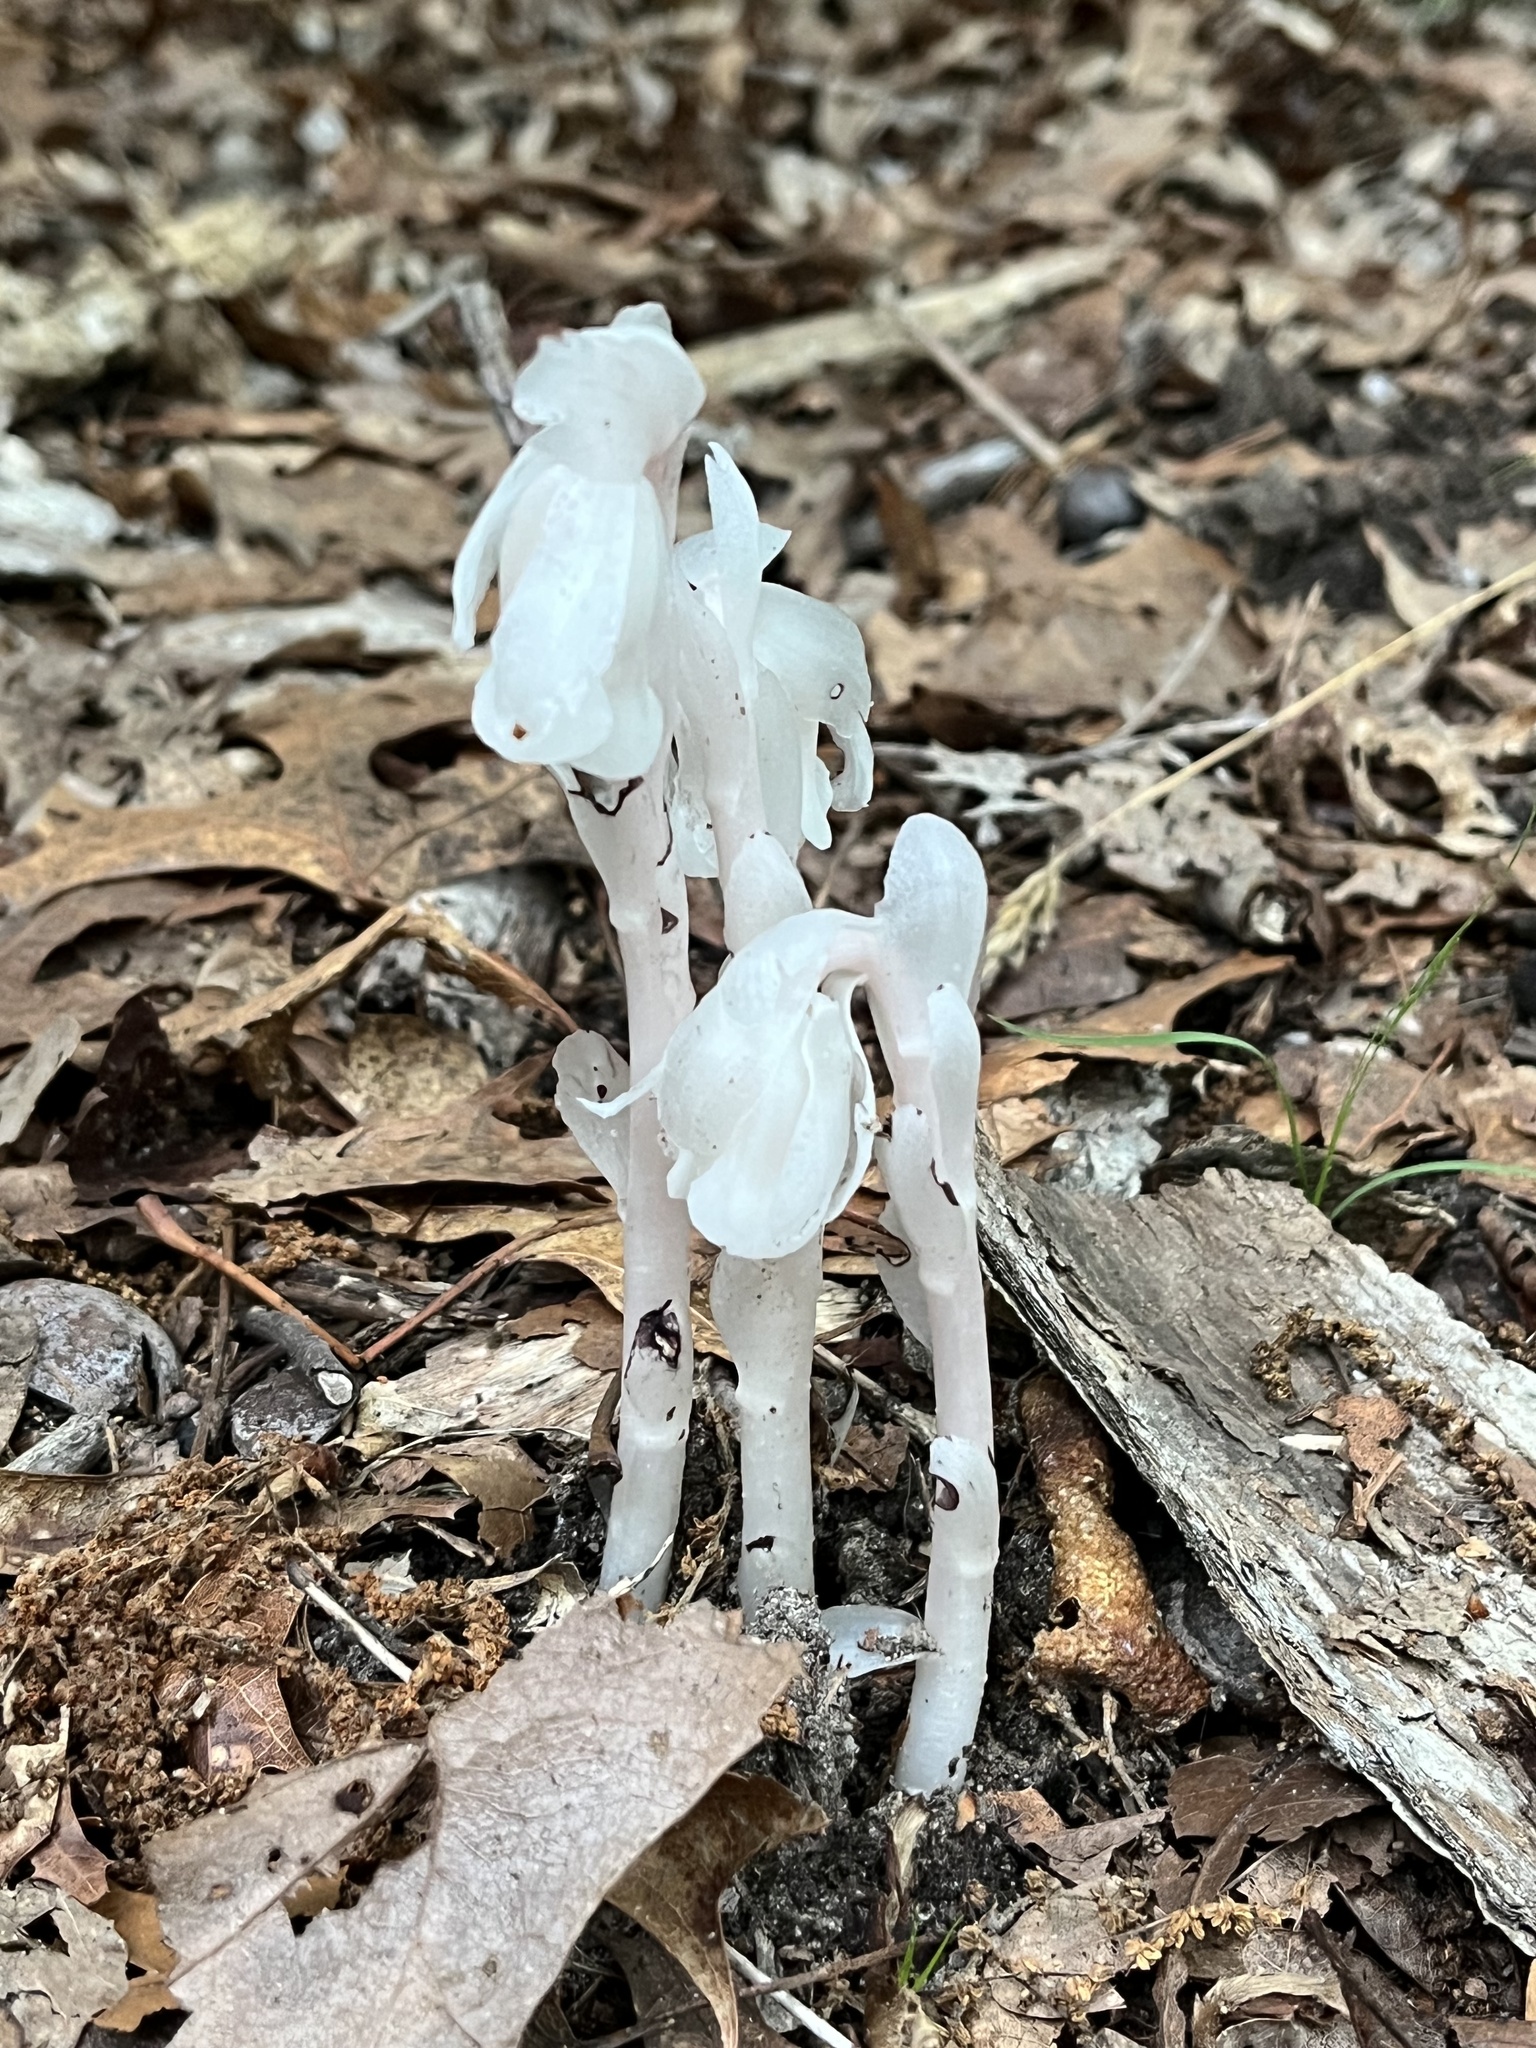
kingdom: Plantae
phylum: Tracheophyta
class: Magnoliopsida
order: Ericales
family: Ericaceae
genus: Monotropa
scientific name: Monotropa uniflora
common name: Convulsion root
